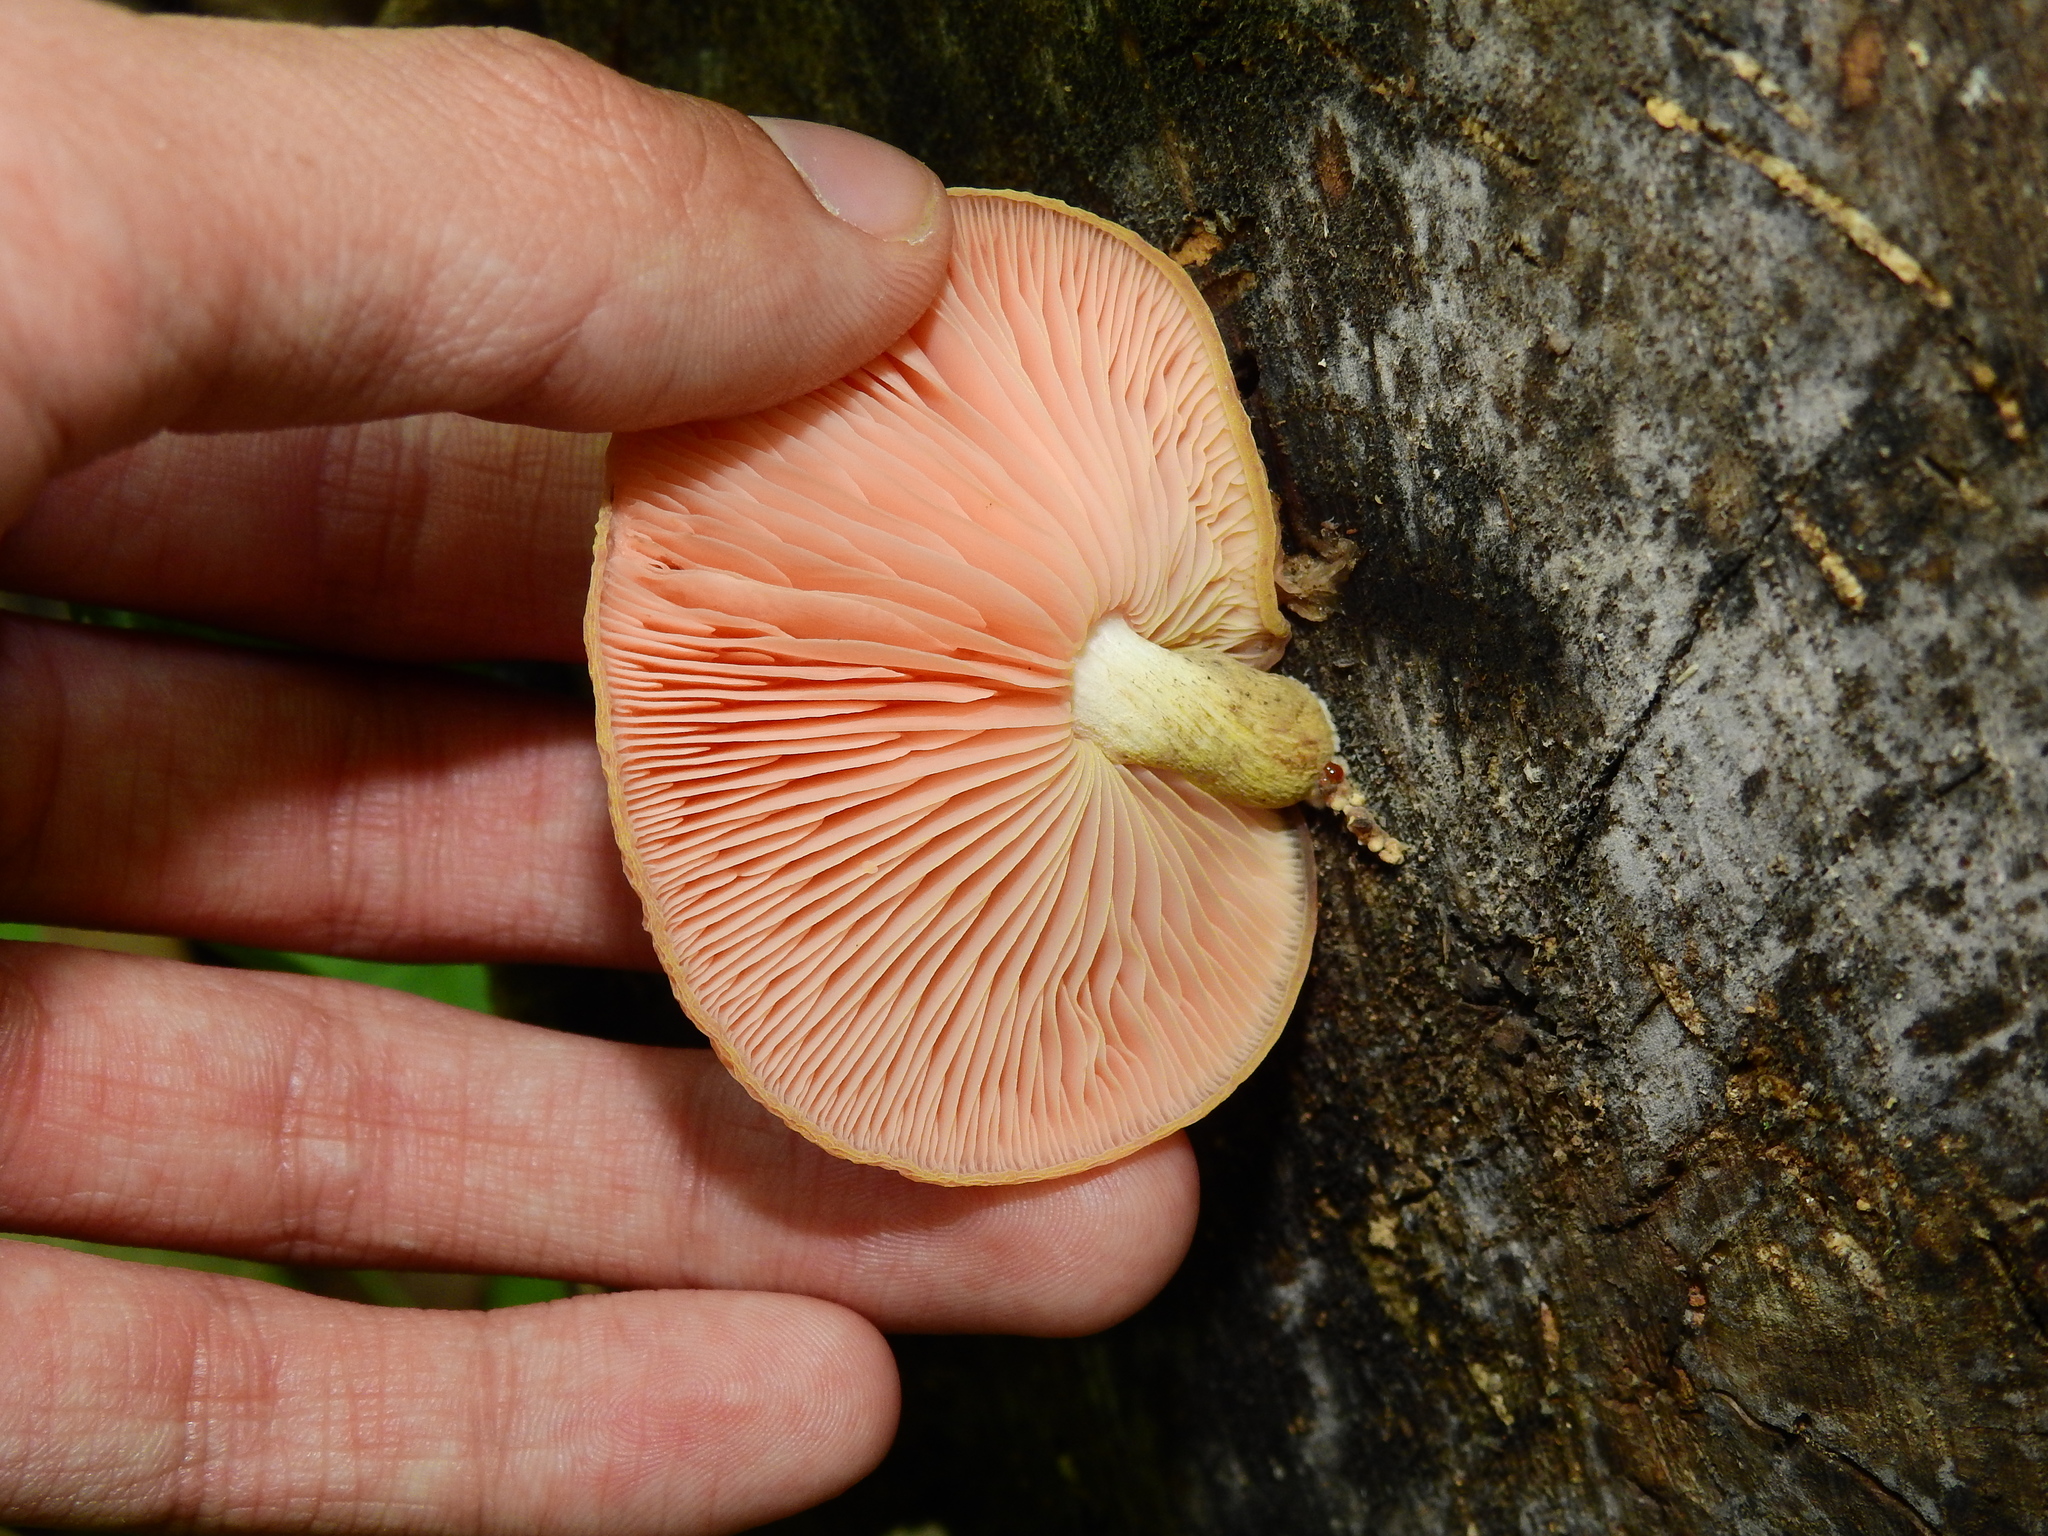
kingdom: Fungi
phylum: Basidiomycota
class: Agaricomycetes
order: Agaricales
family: Physalacriaceae
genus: Rhodotus
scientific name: Rhodotus palmatus
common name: Wrinkled peach
